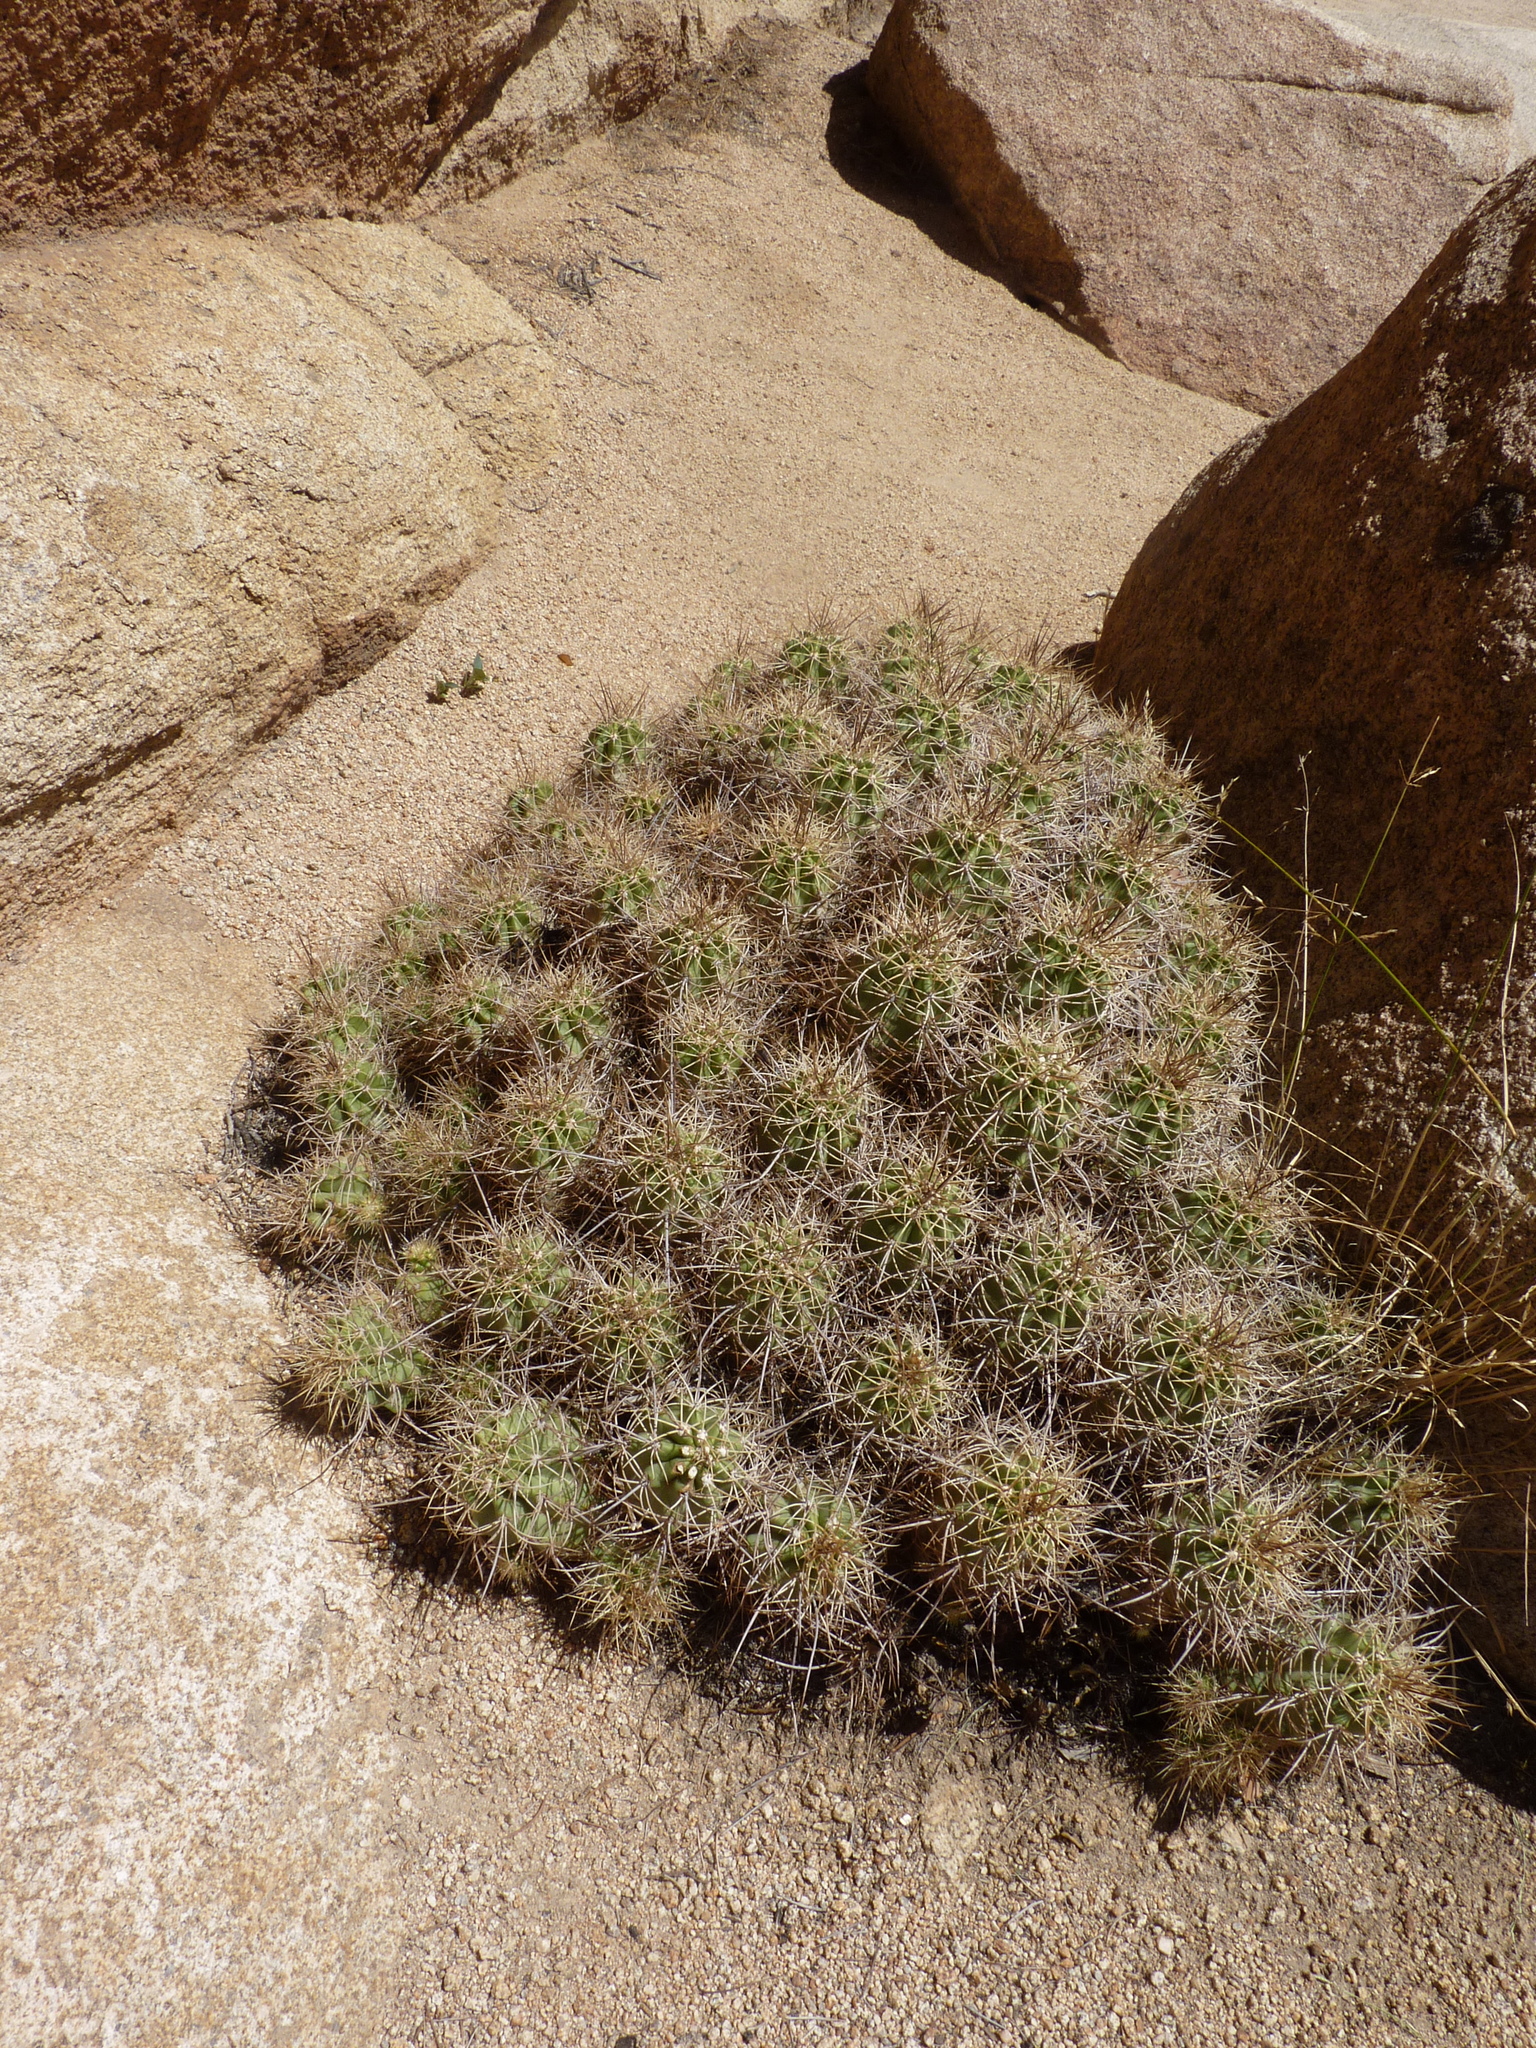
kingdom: Plantae
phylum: Tracheophyta
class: Magnoliopsida
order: Caryophyllales
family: Cactaceae
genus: Echinocereus
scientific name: Echinocereus triglochidiatus
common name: Claretcup hedgehog
